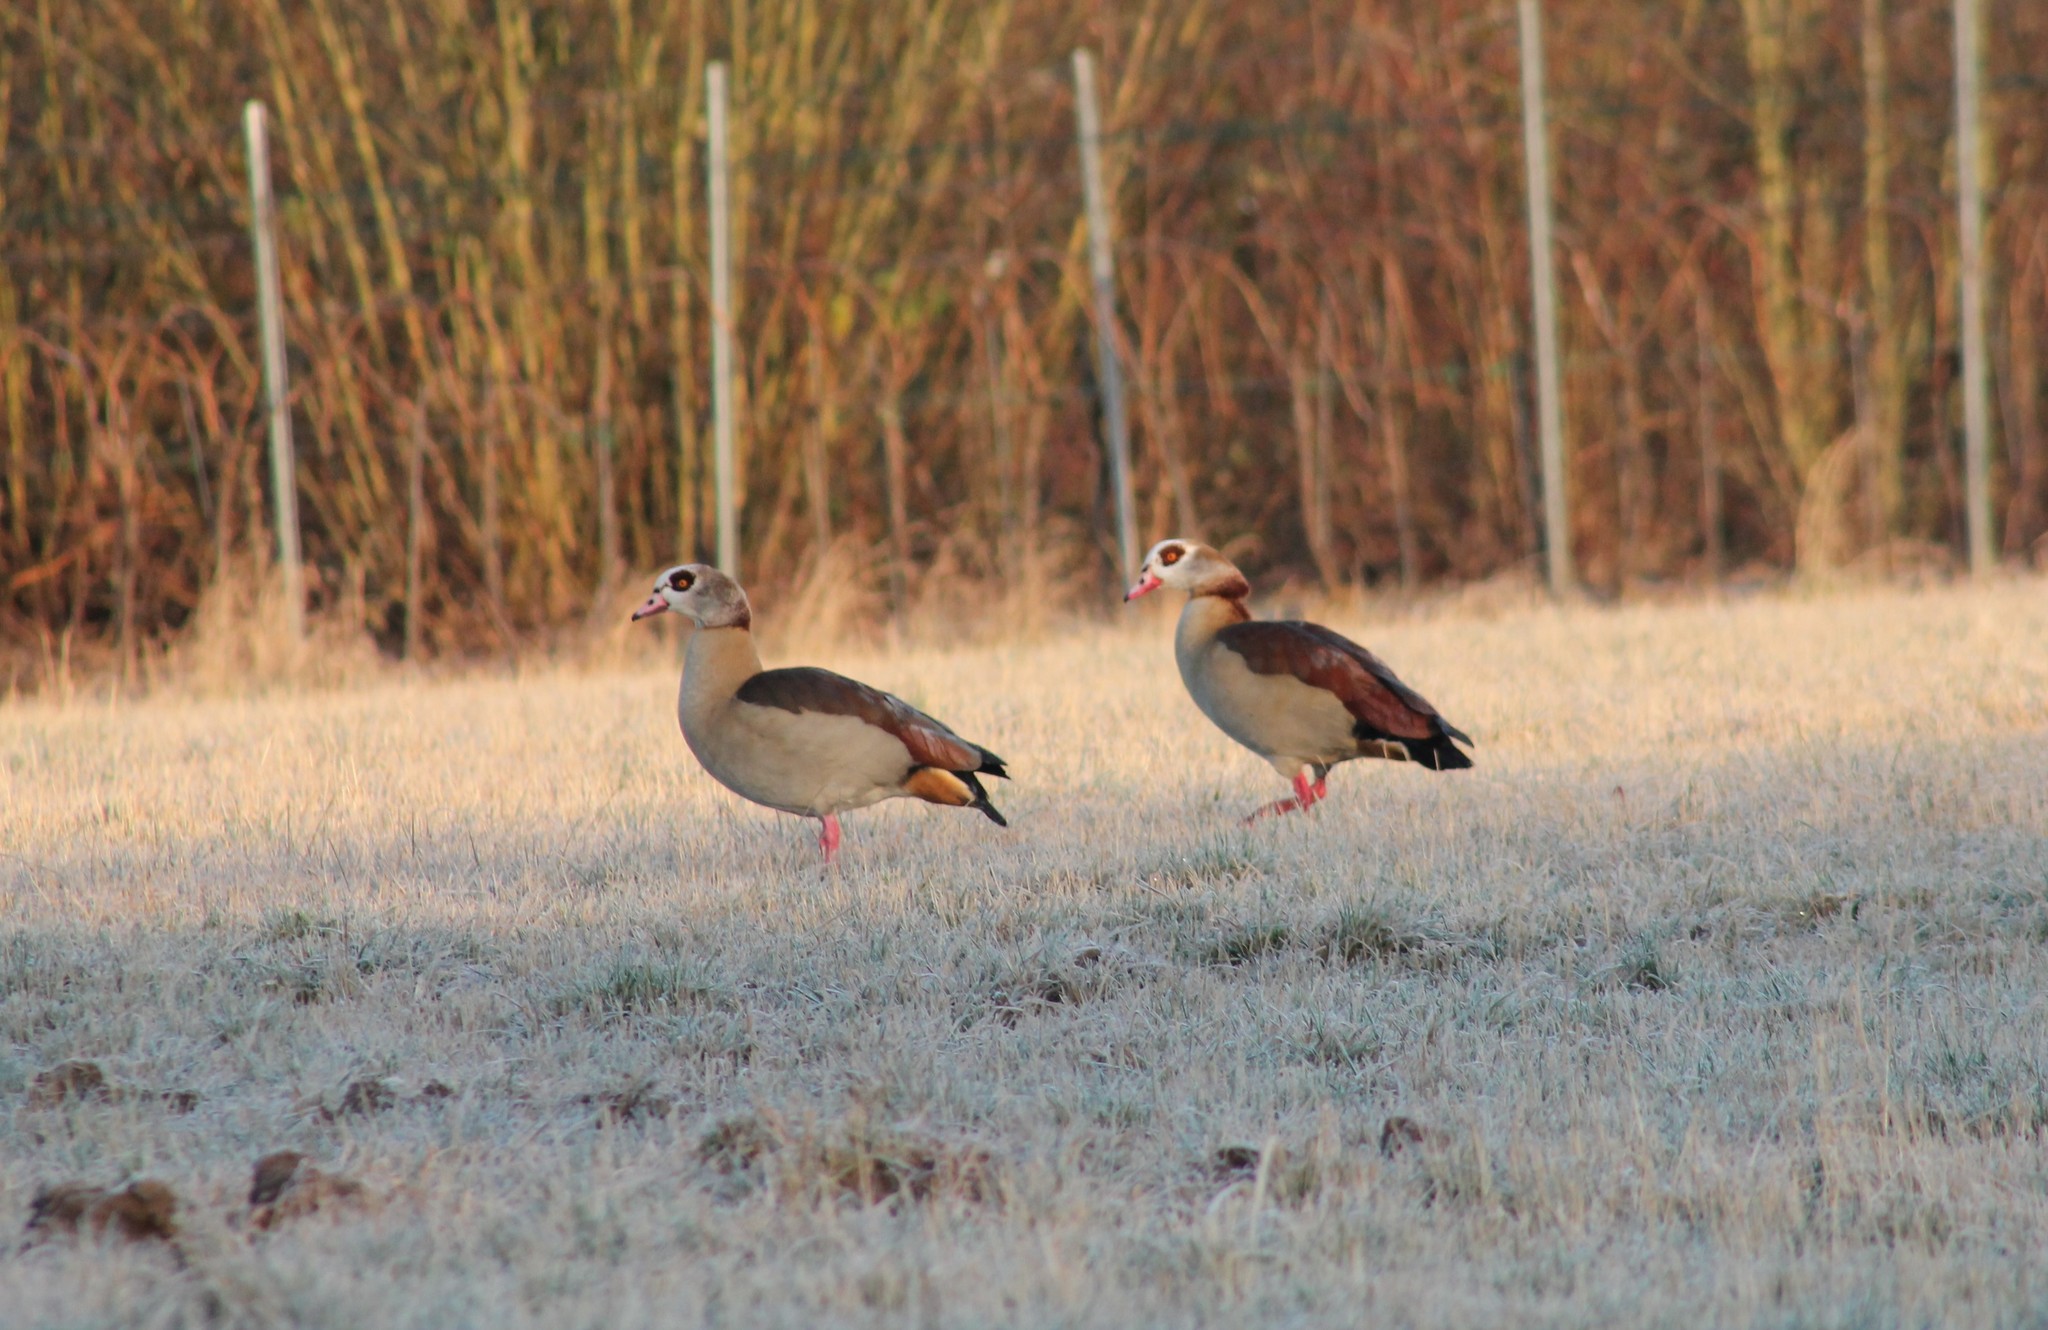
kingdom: Animalia
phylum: Chordata
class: Aves
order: Anseriformes
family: Anatidae
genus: Alopochen
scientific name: Alopochen aegyptiaca
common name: Egyptian goose
